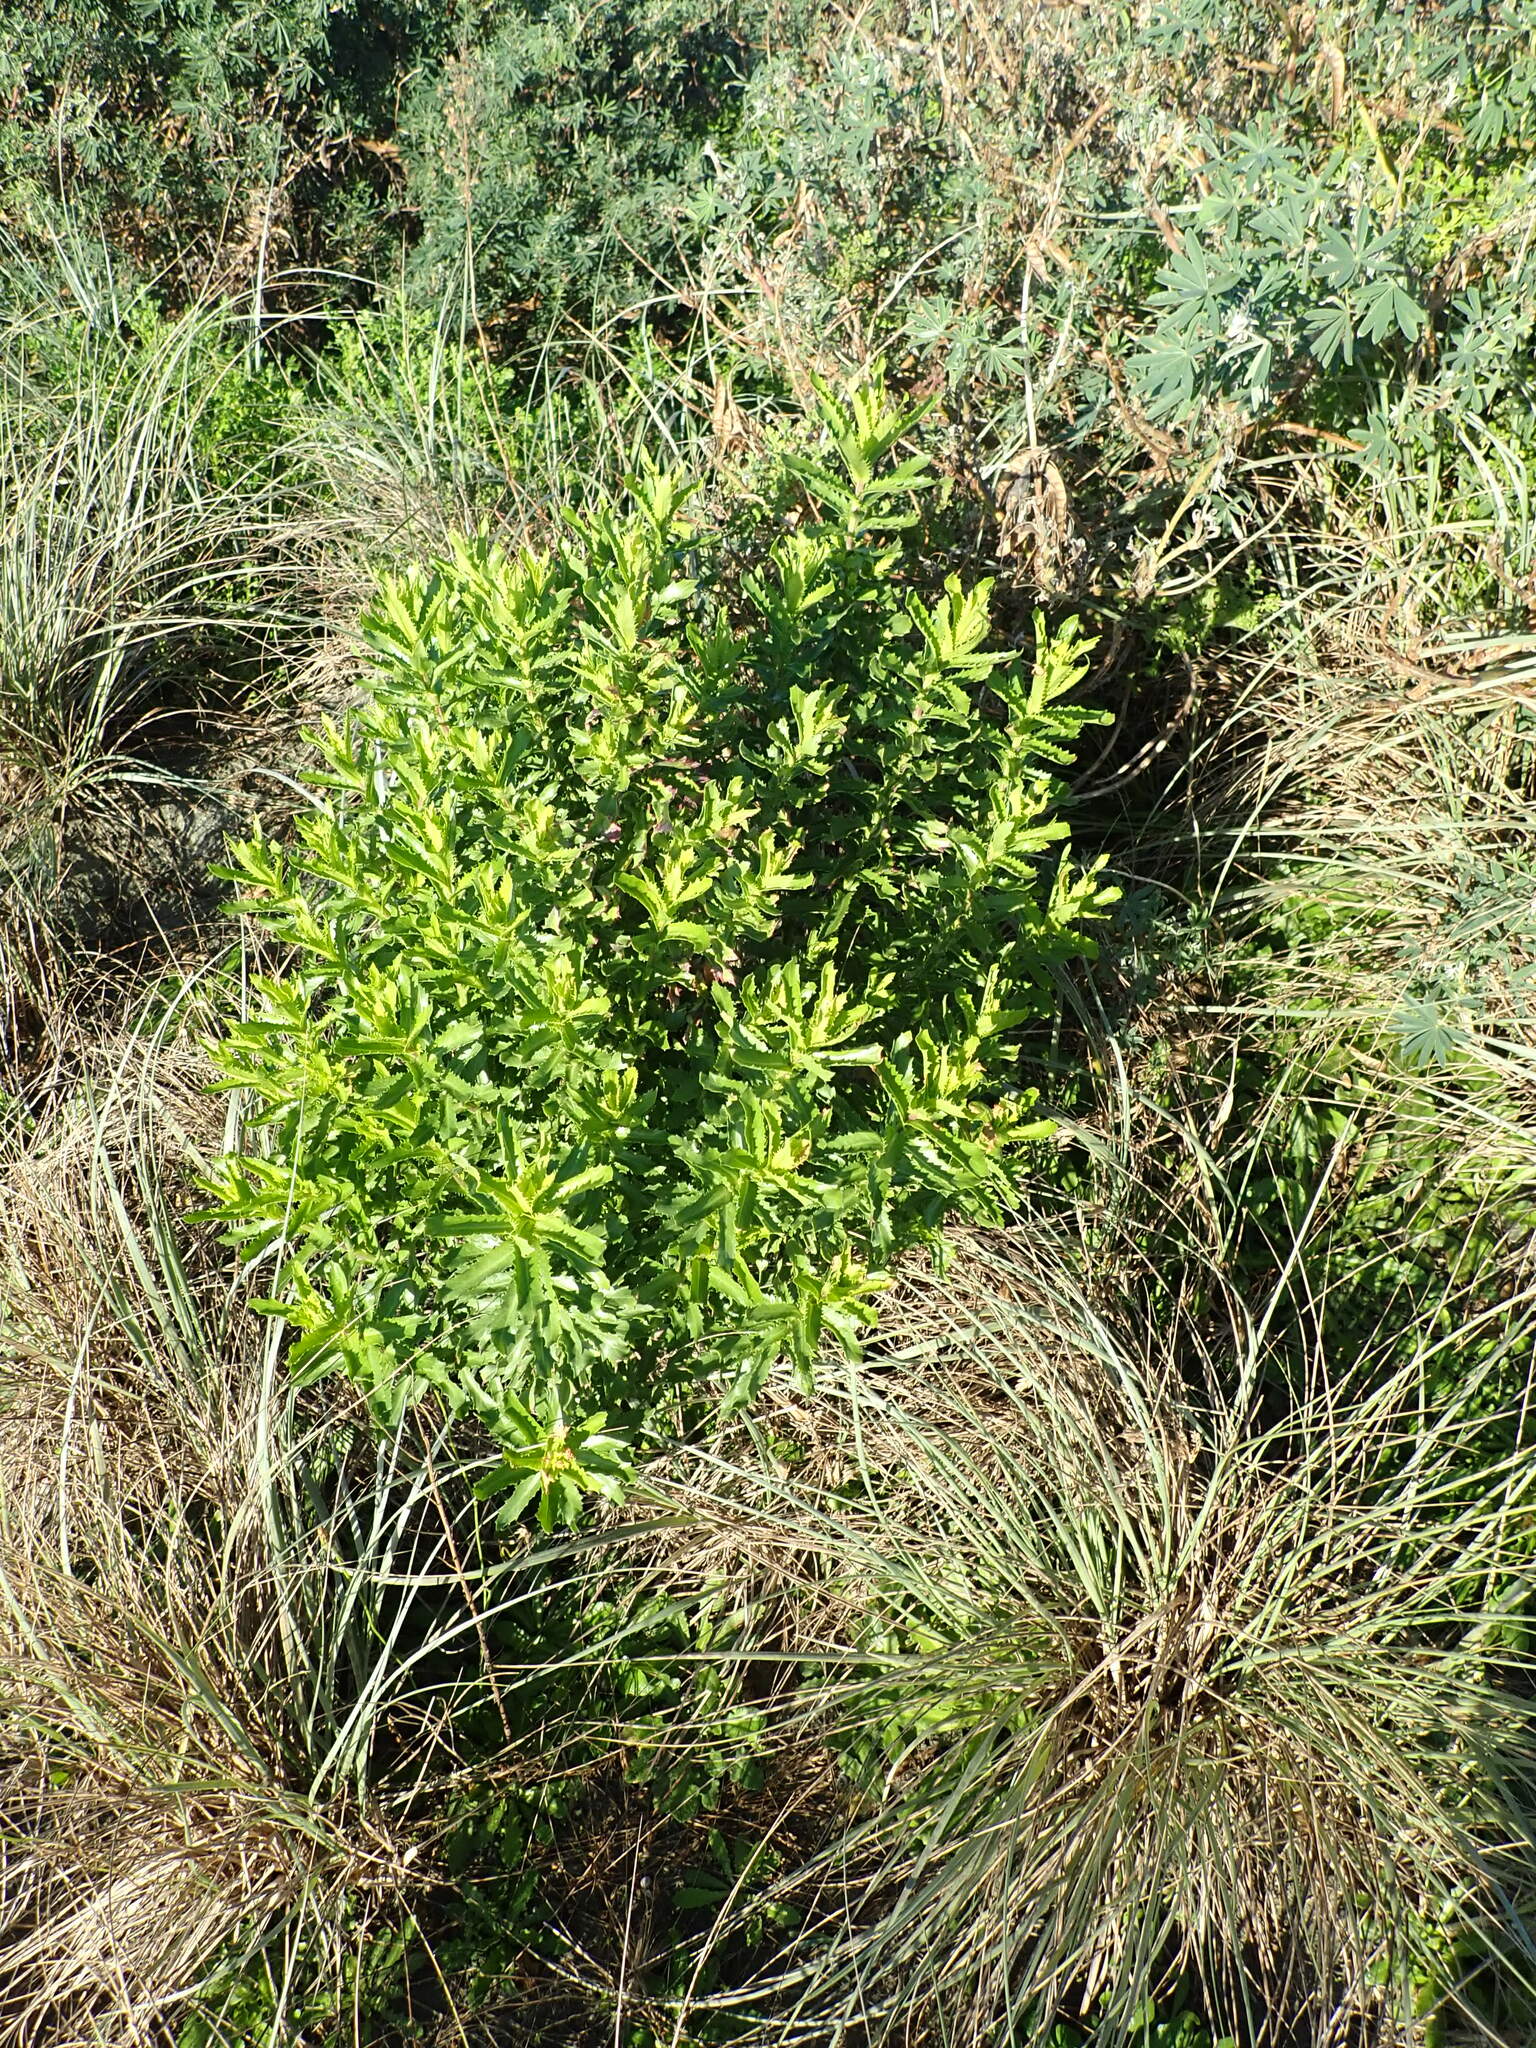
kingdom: Plantae
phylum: Tracheophyta
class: Magnoliopsida
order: Asterales
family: Asteraceae
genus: Senecio
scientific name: Senecio glastifolius
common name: Woad-leaved ragwort
